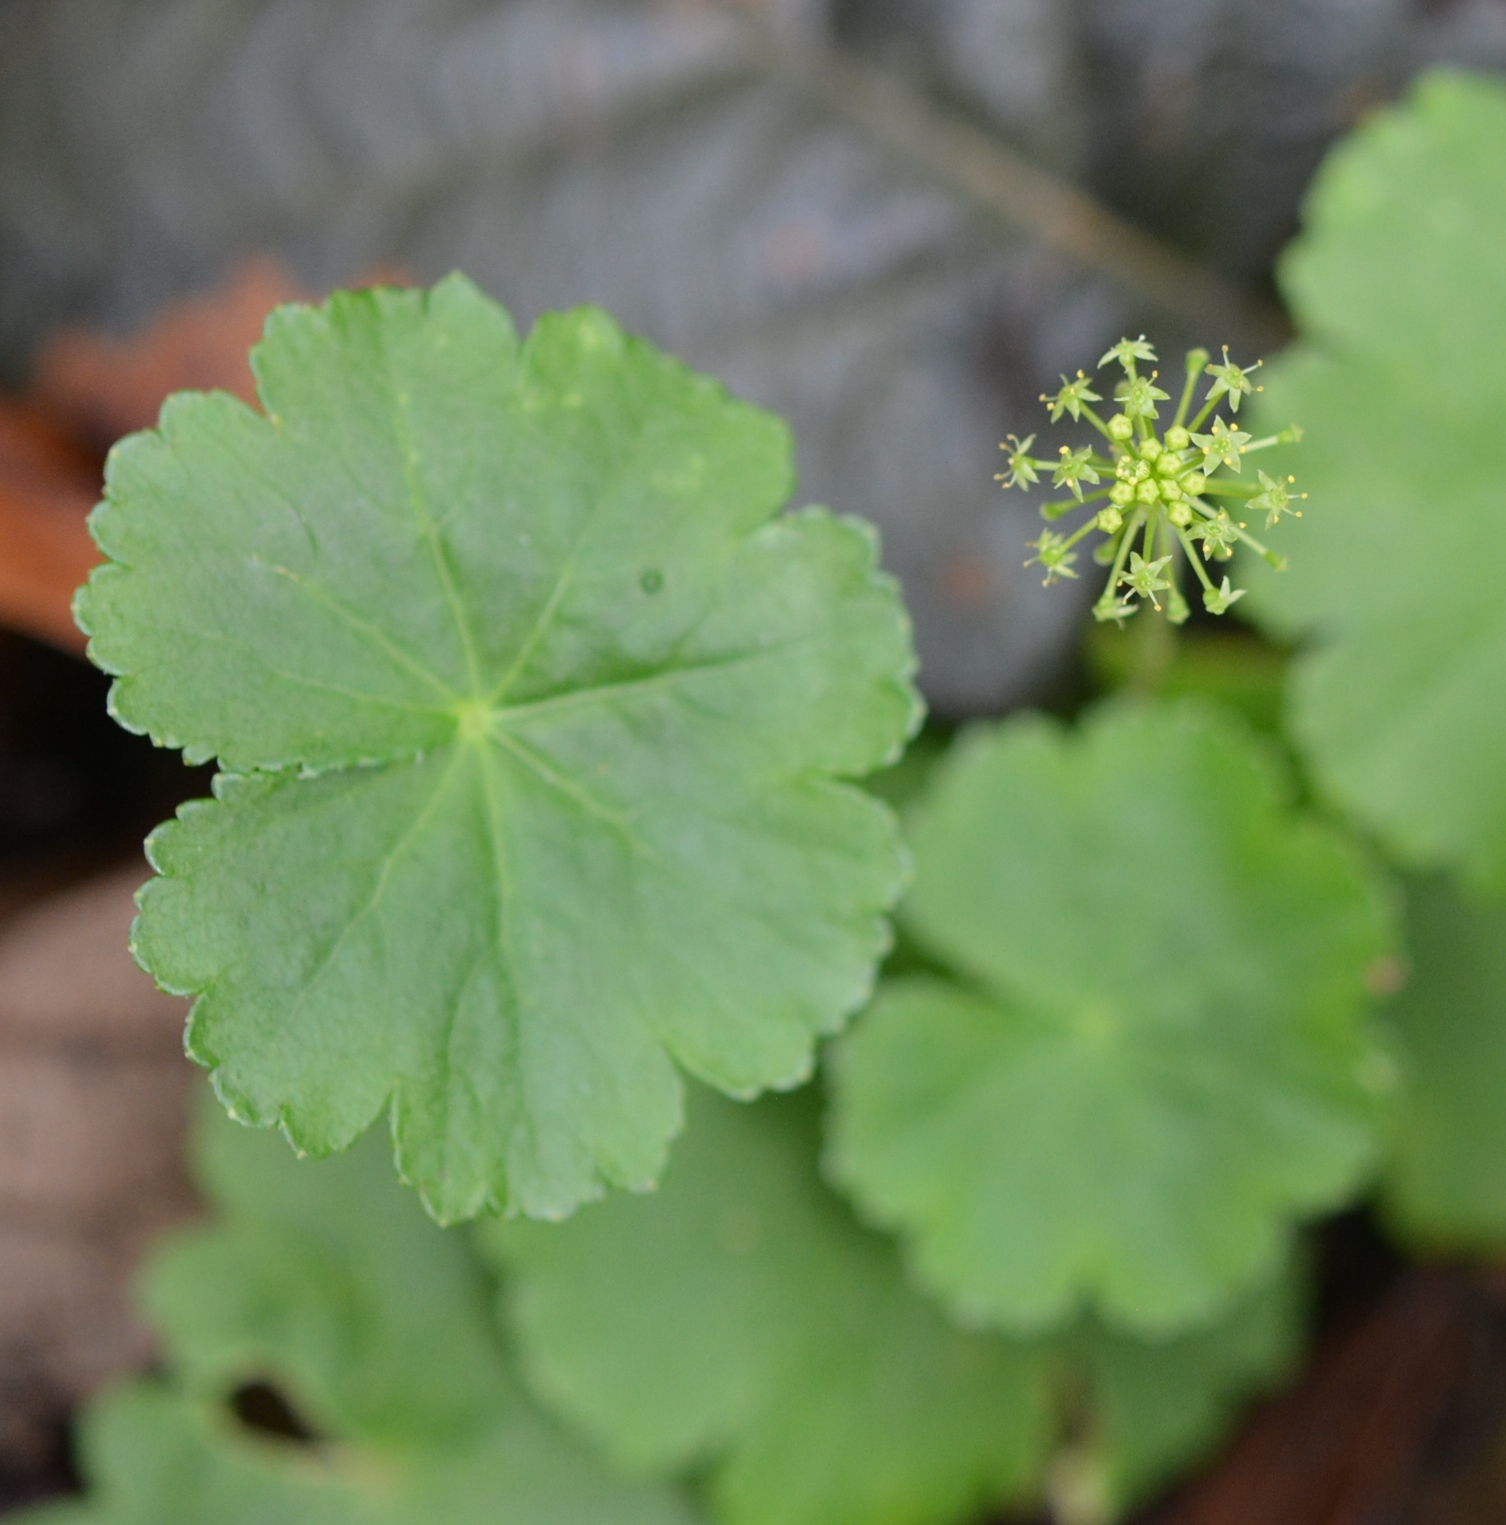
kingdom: Plantae
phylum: Tracheophyta
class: Magnoliopsida
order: Apiales
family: Araliaceae
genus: Hydrocotyle
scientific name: Hydrocotyle mexicana
